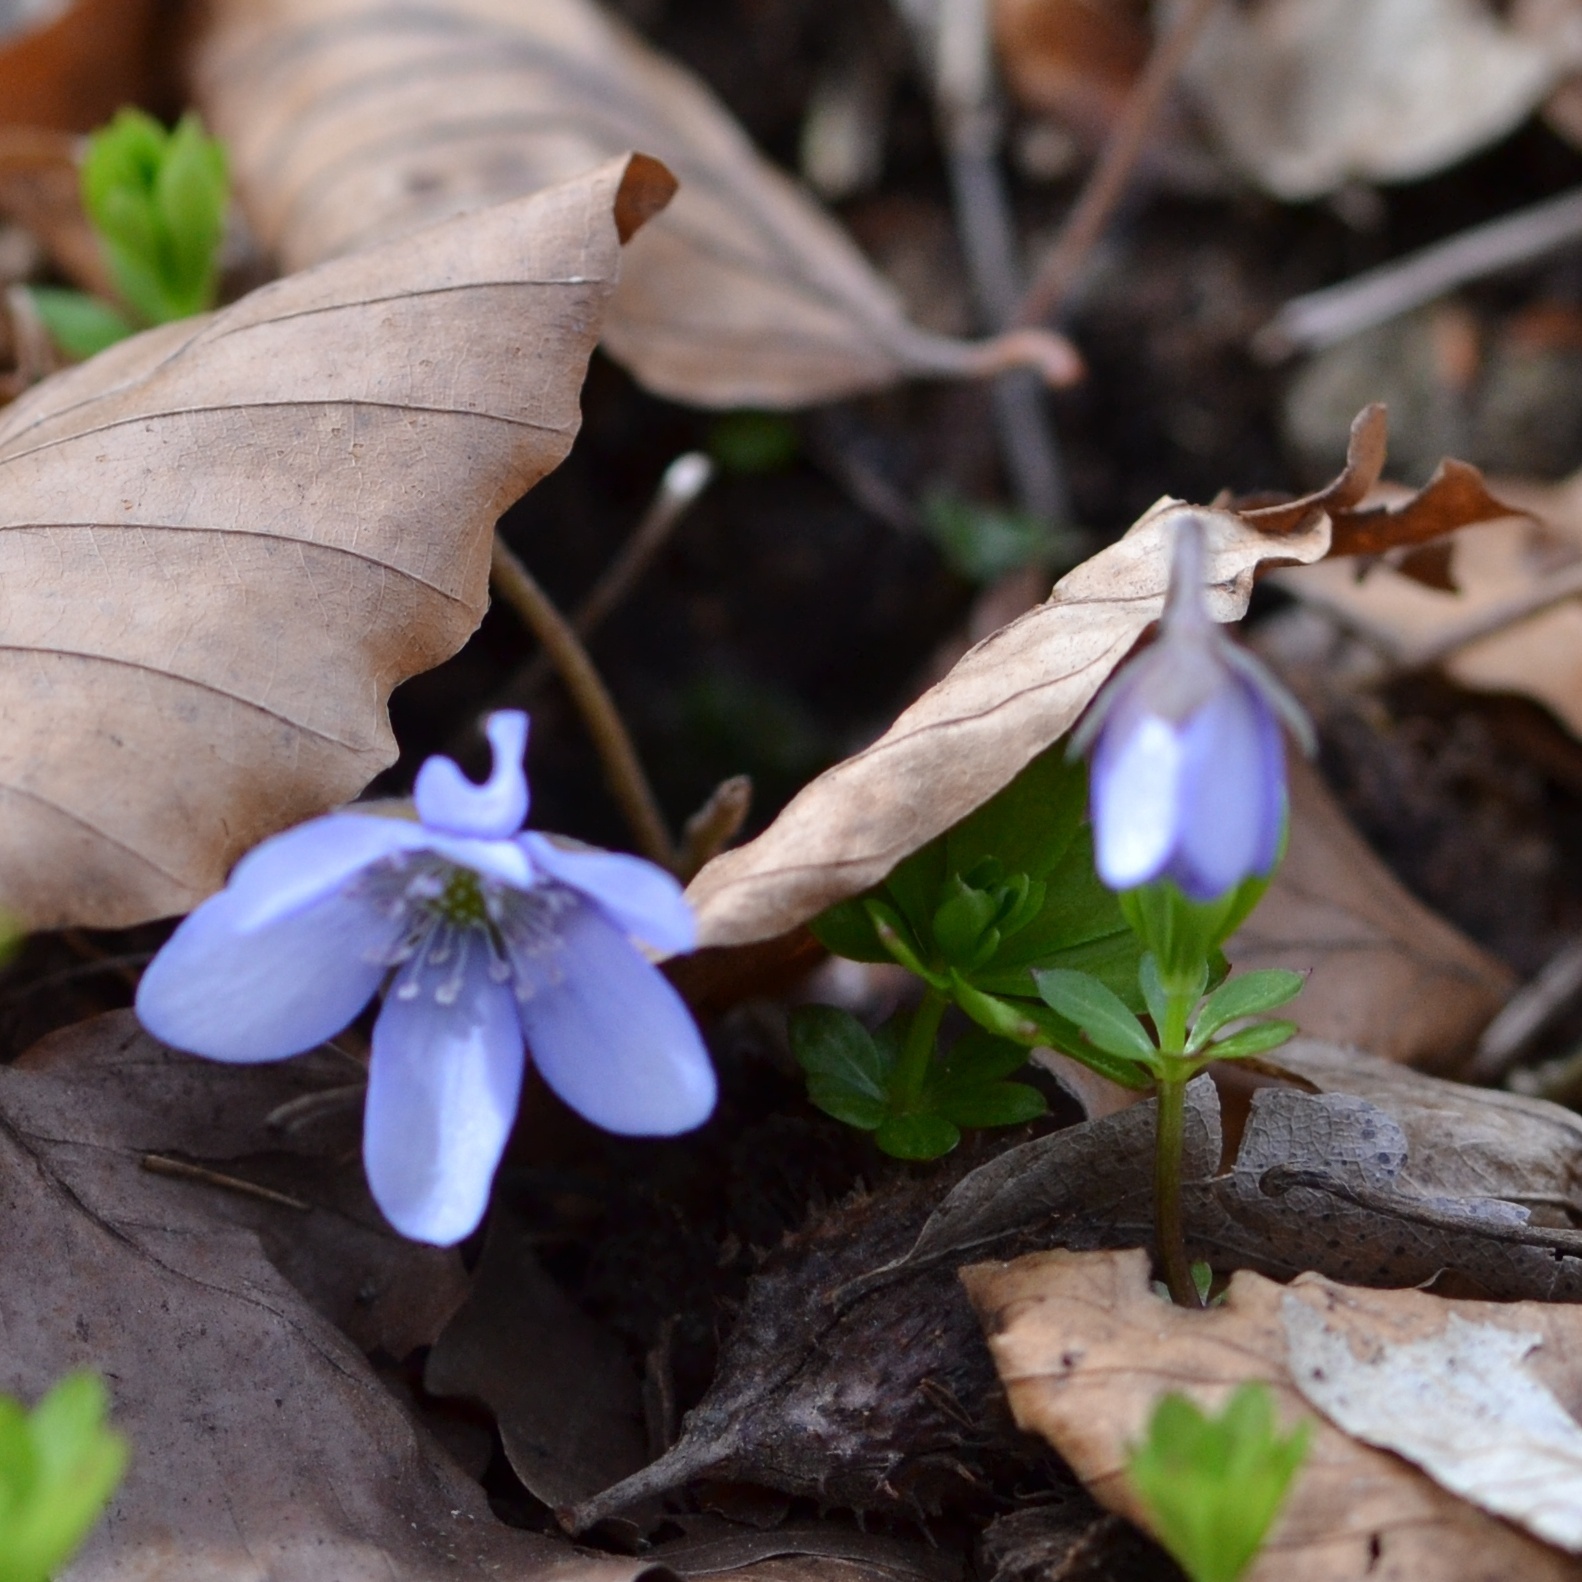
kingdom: Plantae
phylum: Tracheophyta
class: Magnoliopsida
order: Ranunculales
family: Ranunculaceae
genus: Hepatica
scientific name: Hepatica nobilis
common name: Liverleaf
